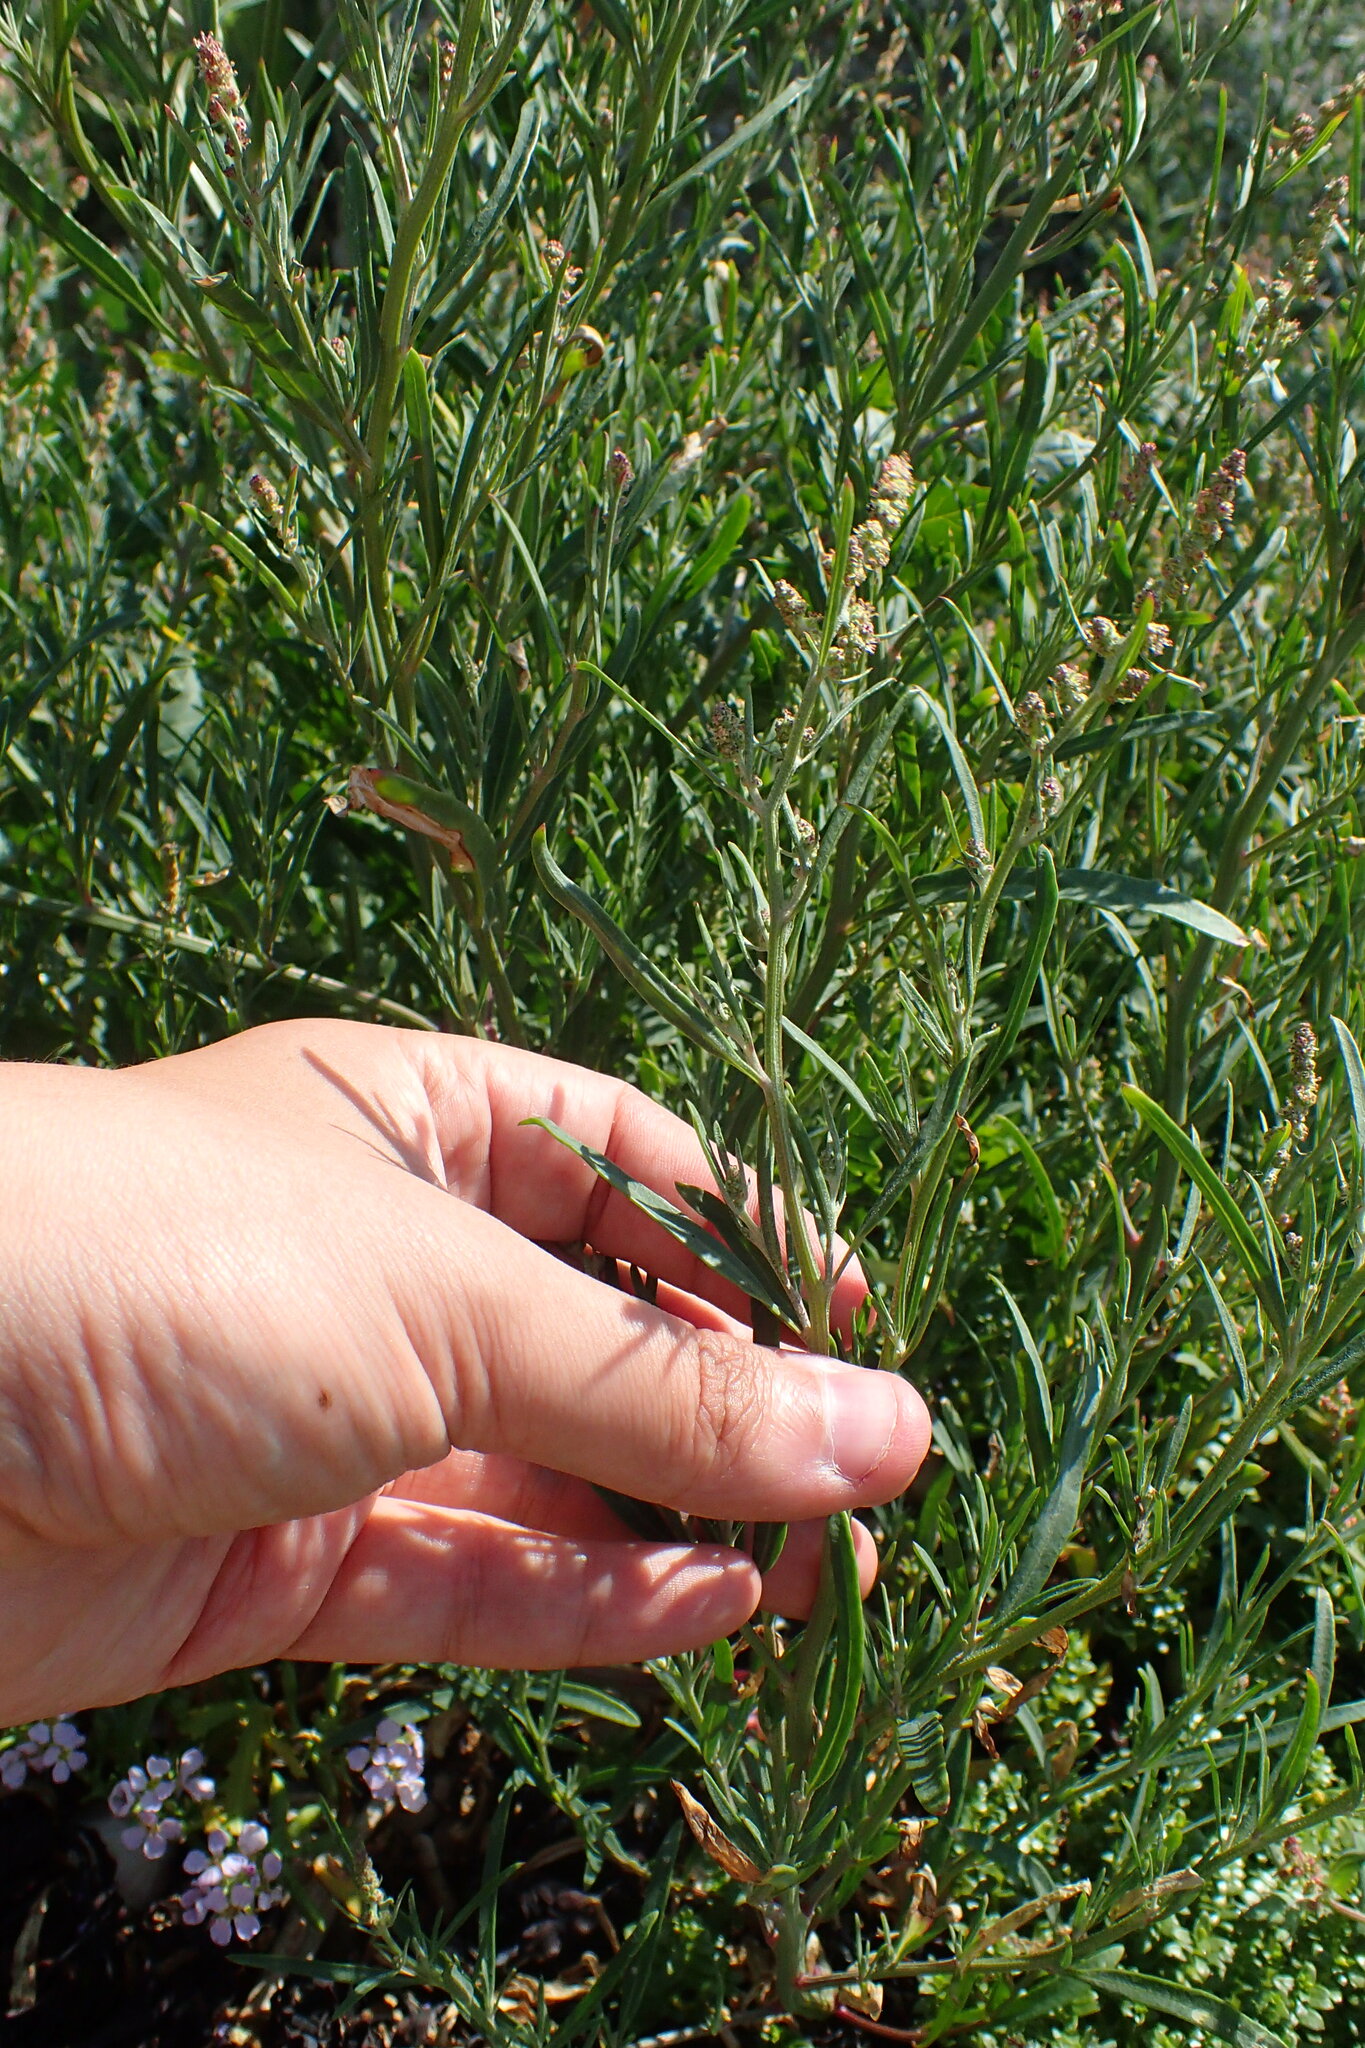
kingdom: Plantae
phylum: Tracheophyta
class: Magnoliopsida
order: Caryophyllales
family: Amaranthaceae
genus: Atriplex
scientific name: Atriplex littoralis
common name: Grass-leaved orache
